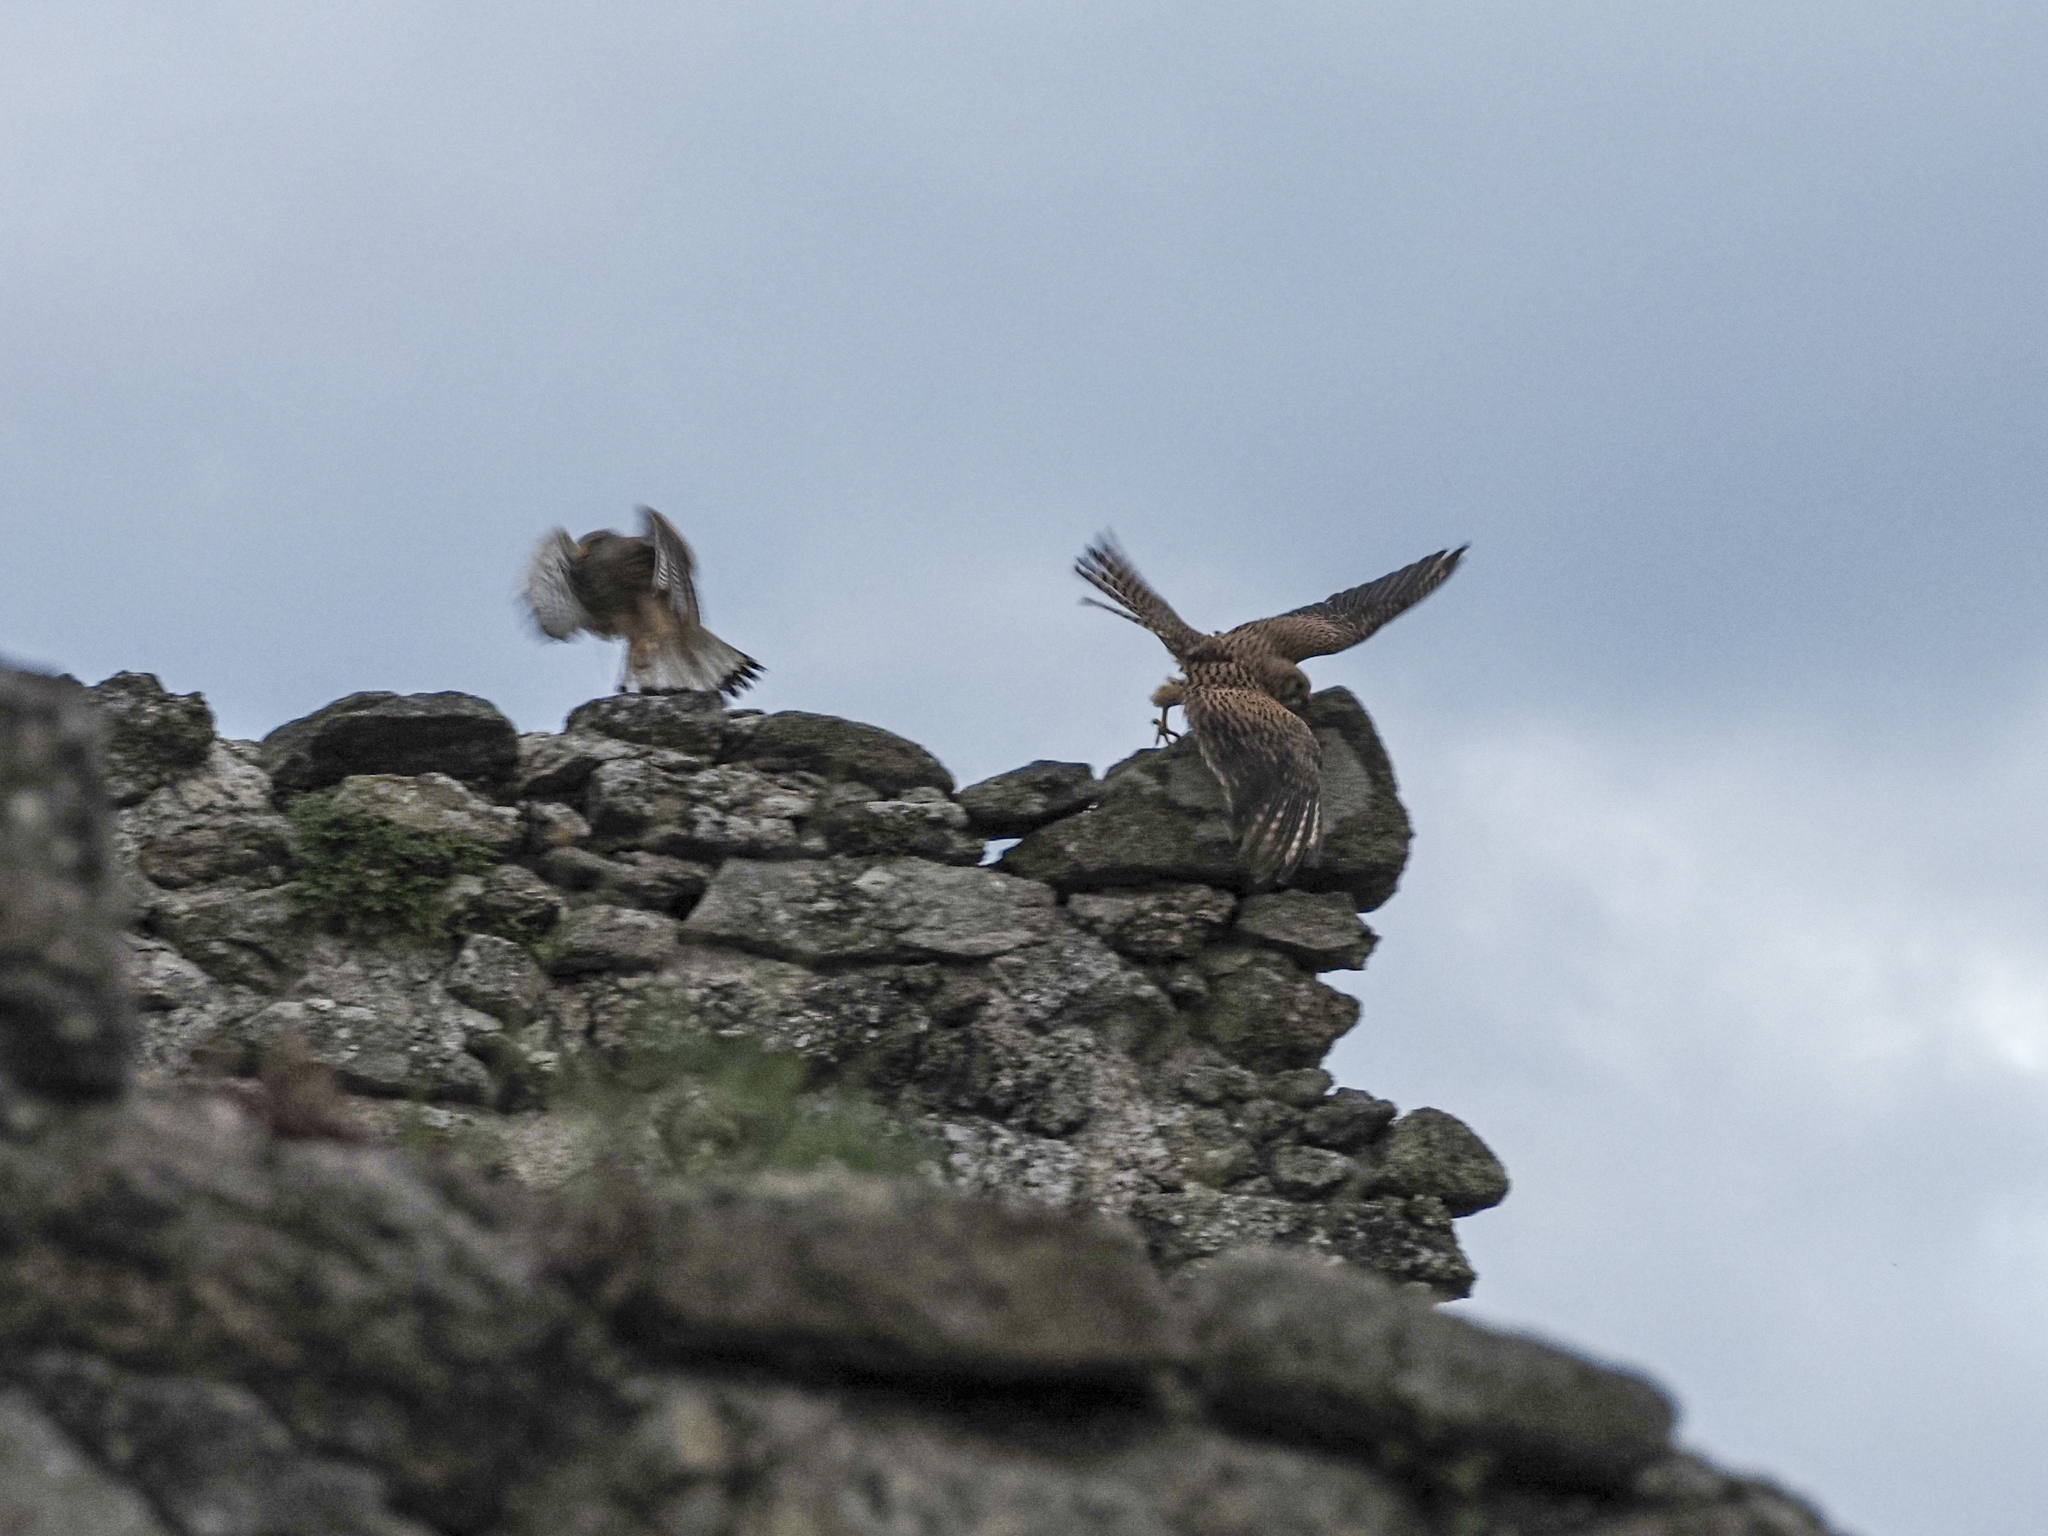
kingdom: Animalia
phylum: Chordata
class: Aves
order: Falconiformes
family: Falconidae
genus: Falco
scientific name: Falco tinnunculus
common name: Common kestrel
